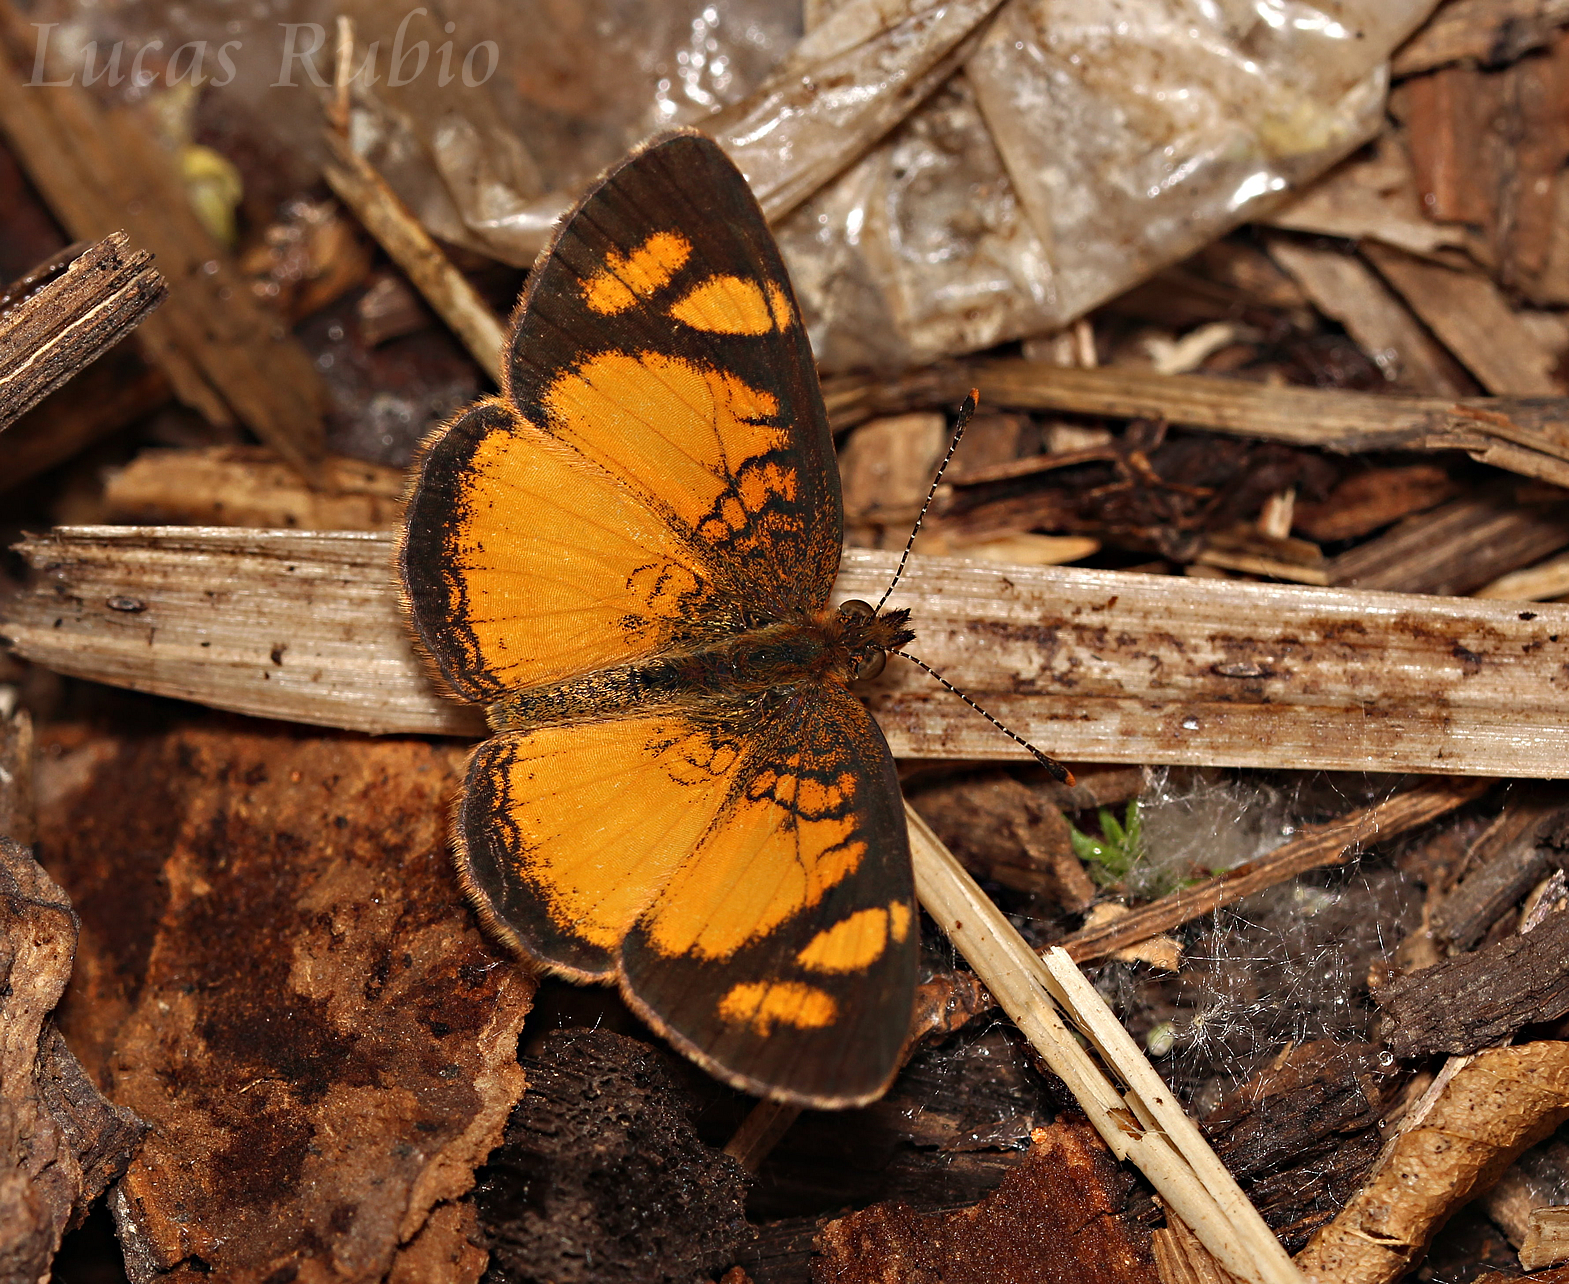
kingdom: Animalia
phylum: Arthropoda
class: Insecta
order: Lepidoptera
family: Nymphalidae
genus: Tegosa
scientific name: Tegosa claudina
